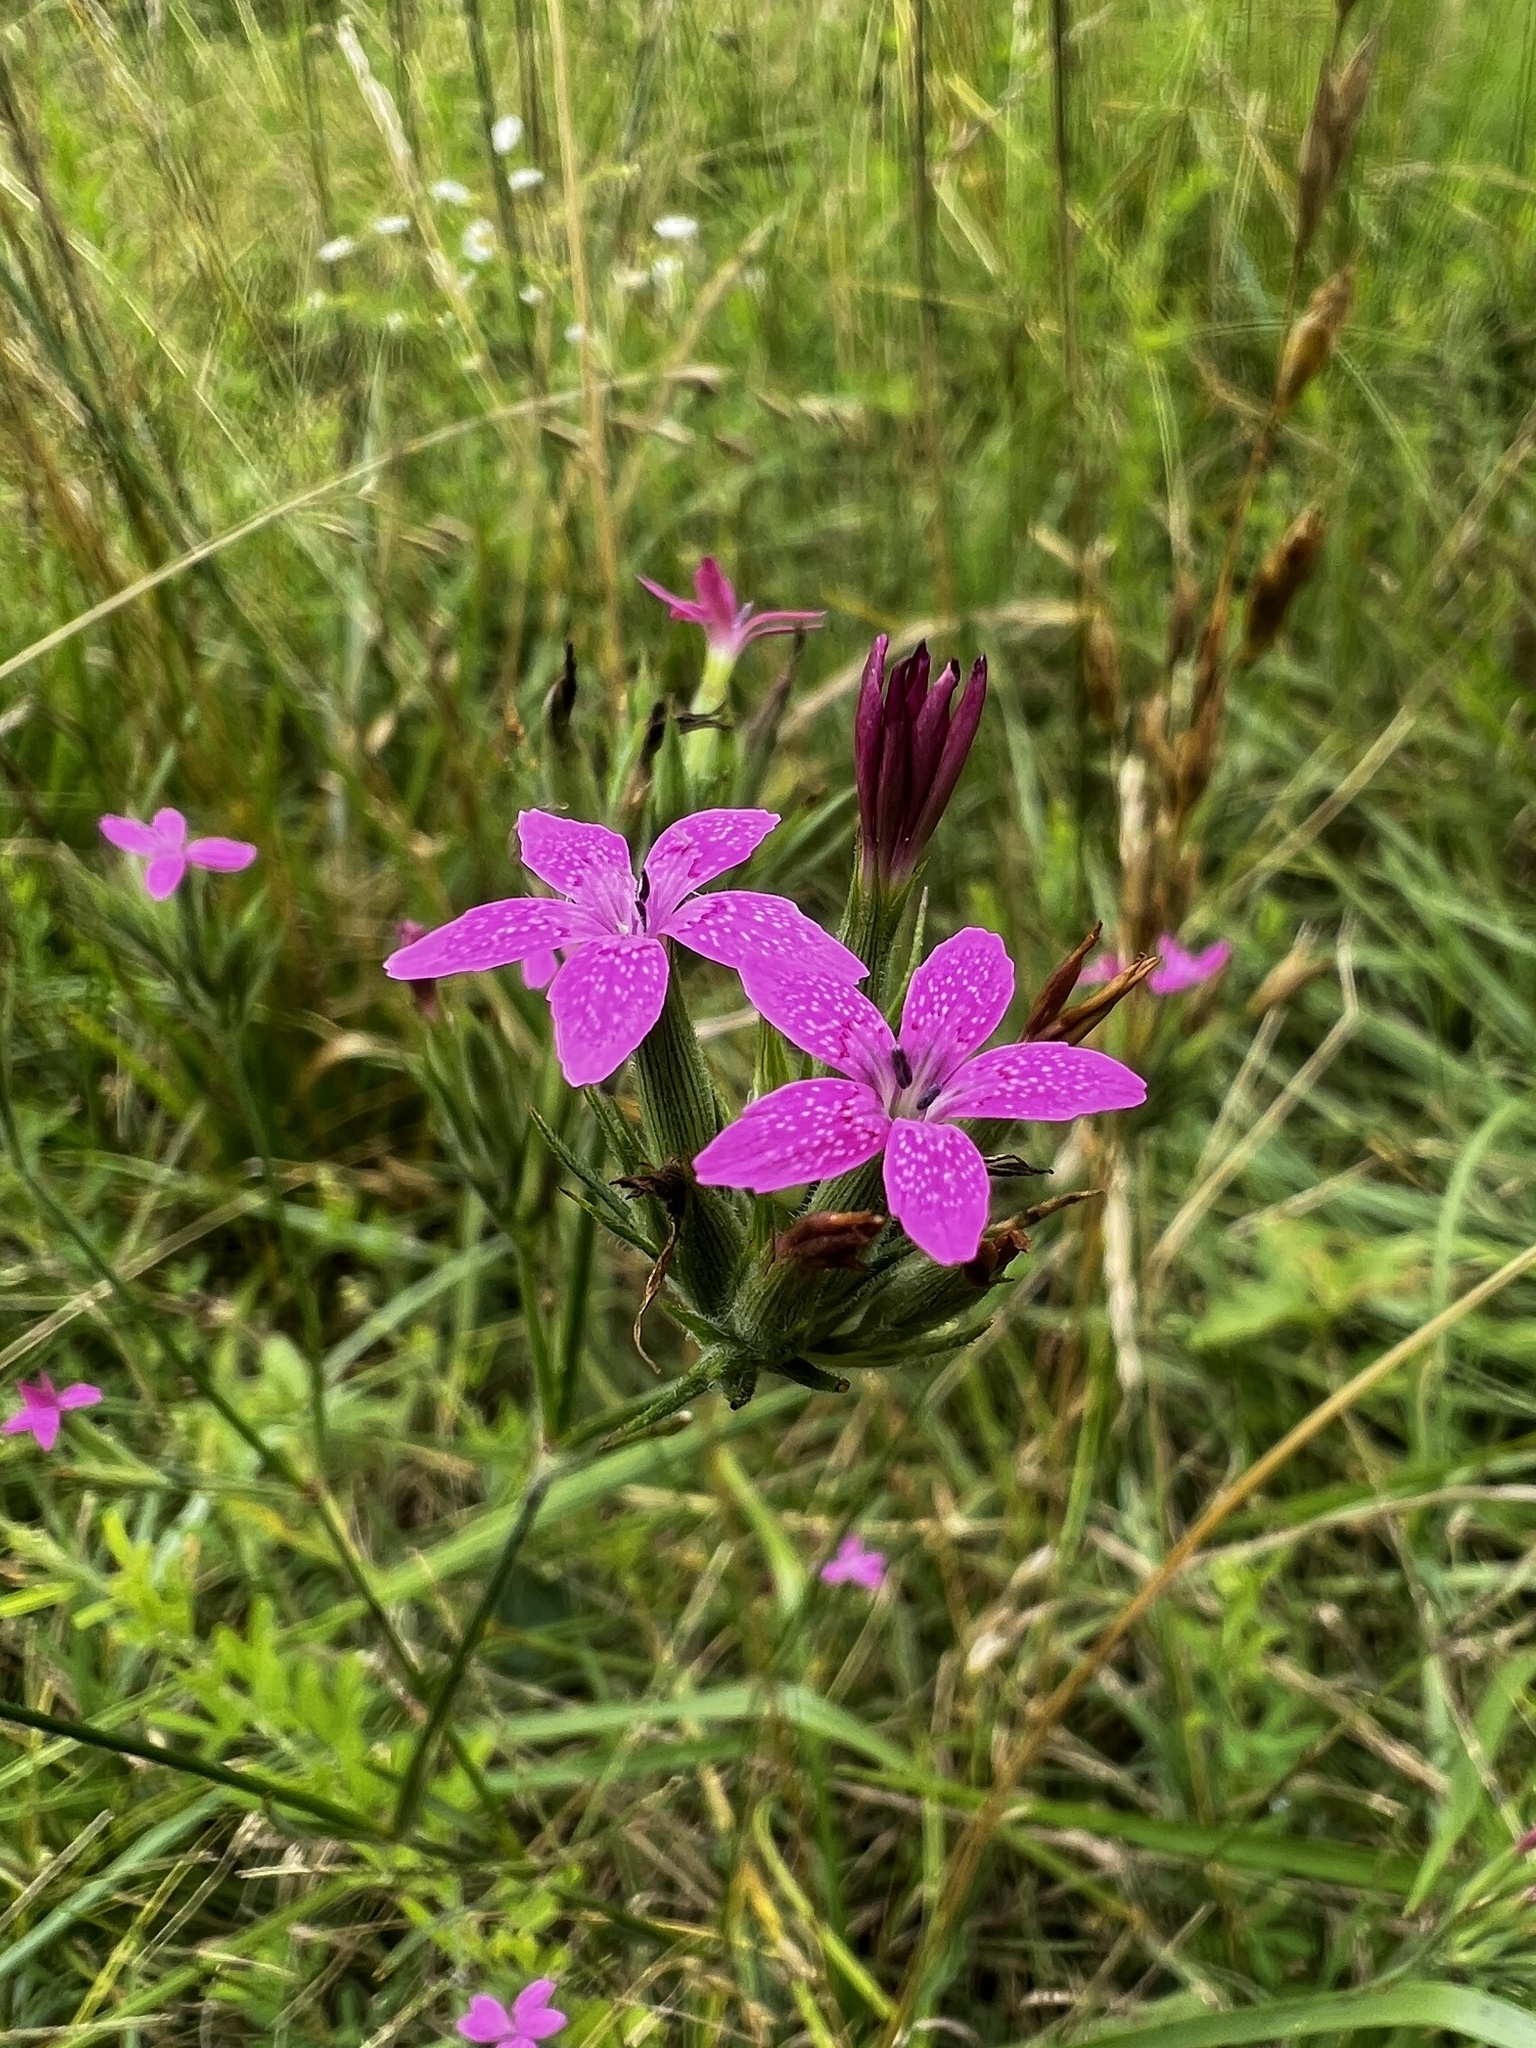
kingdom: Plantae
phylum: Tracheophyta
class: Magnoliopsida
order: Caryophyllales
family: Caryophyllaceae
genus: Dianthus
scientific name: Dianthus armeria
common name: Deptford pink
